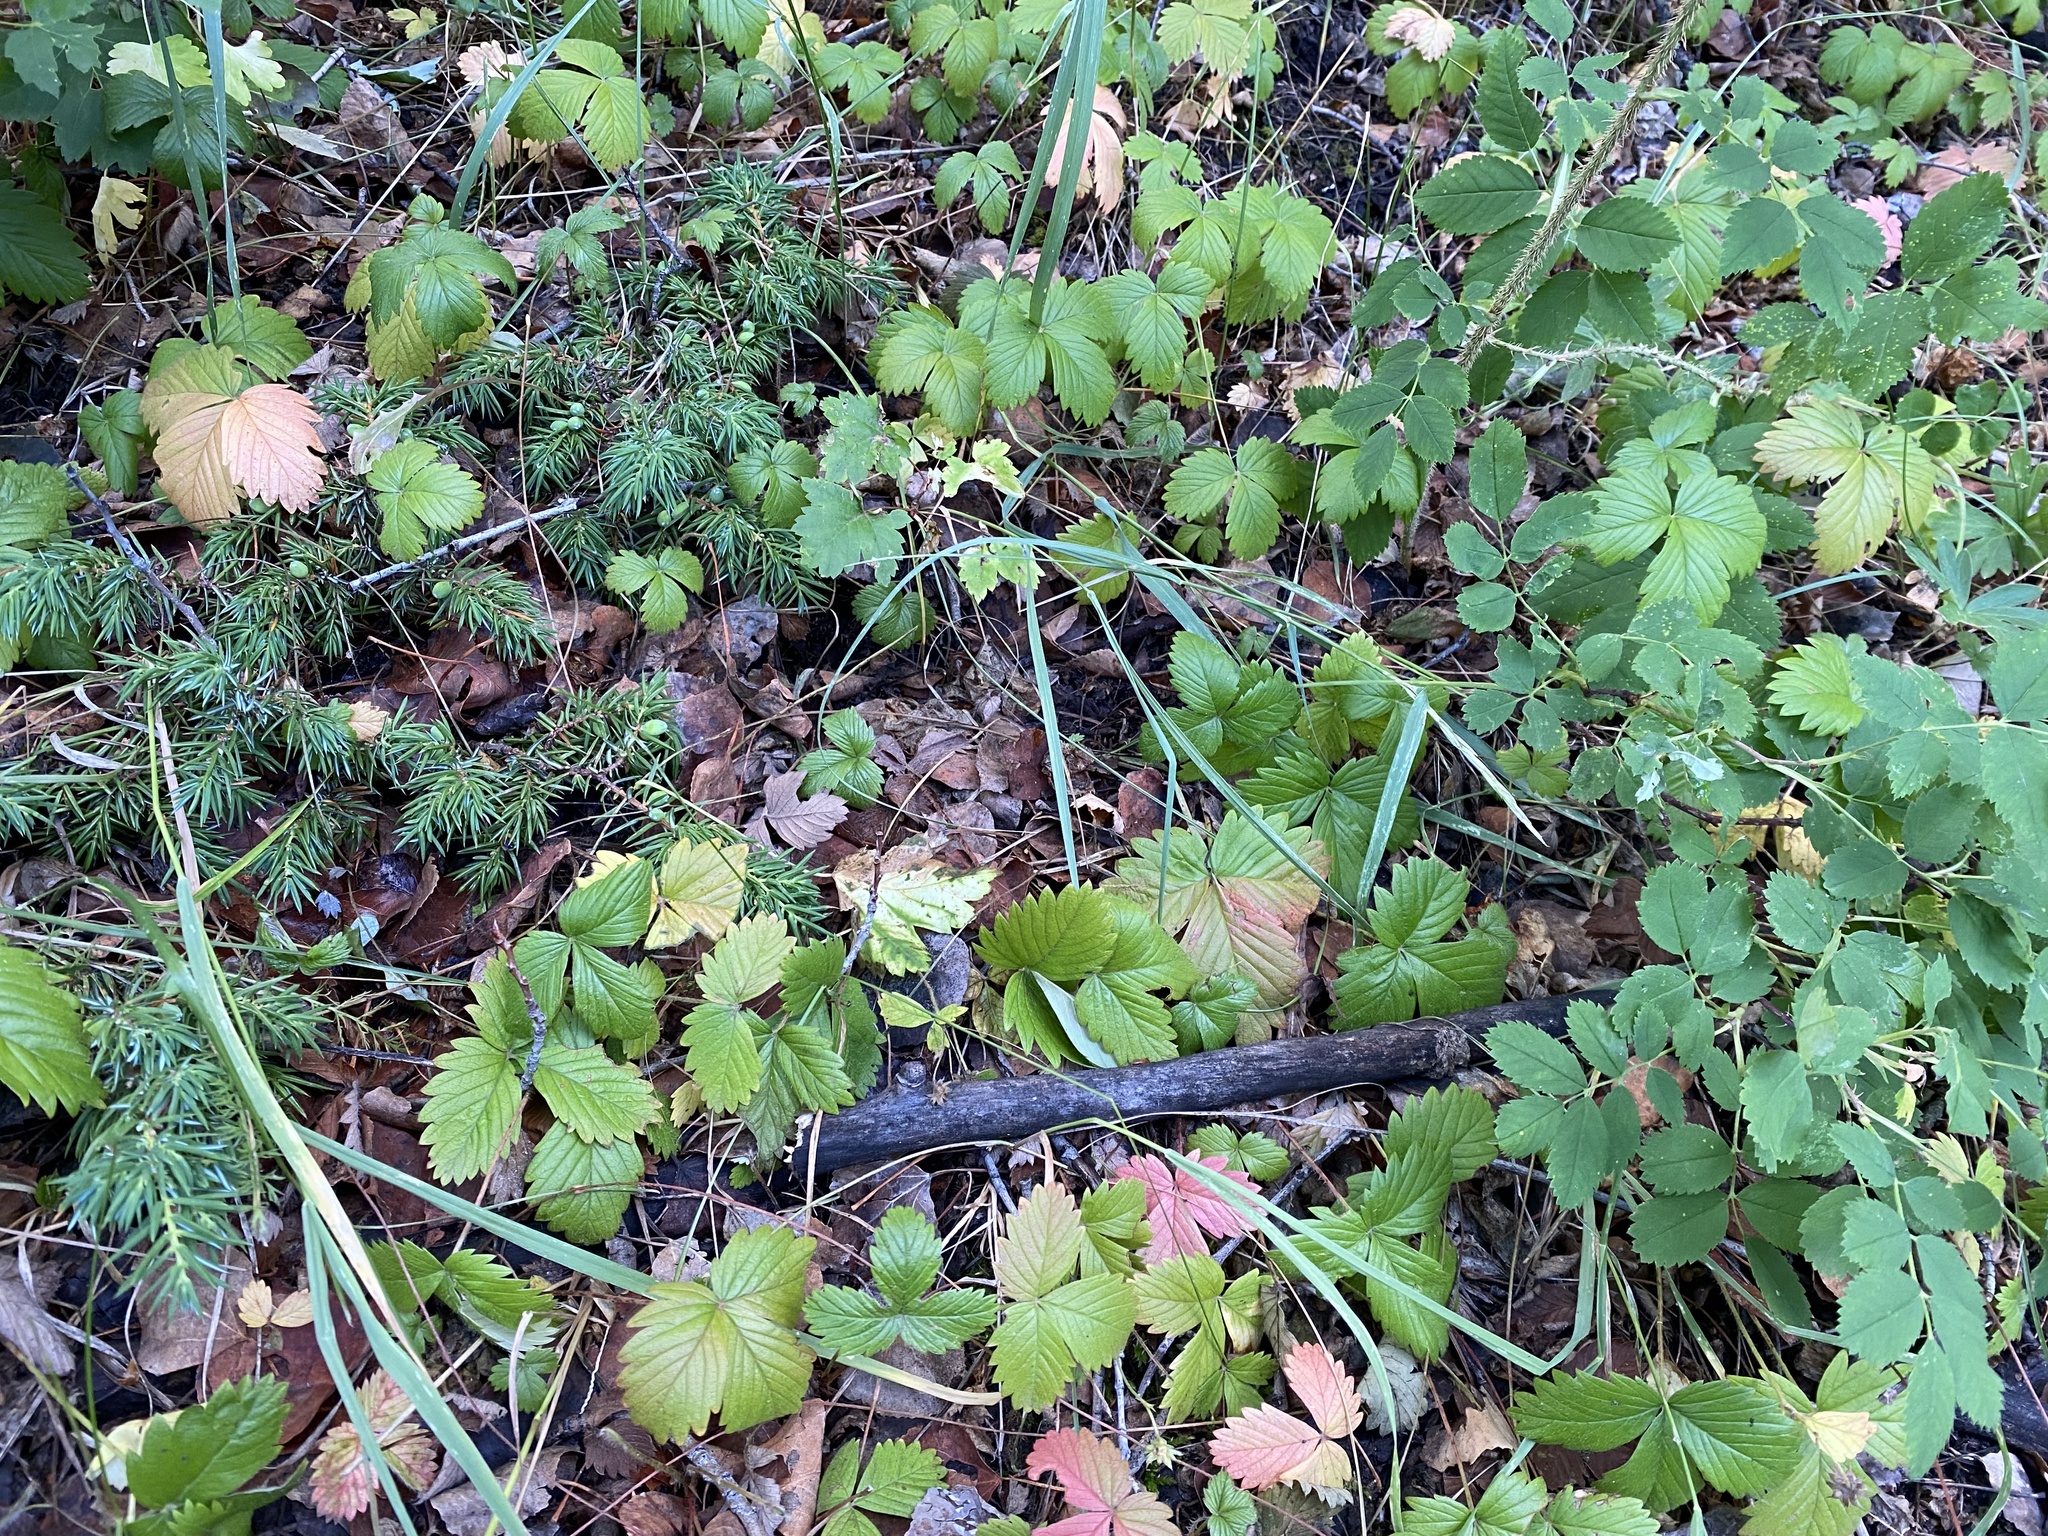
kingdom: Plantae
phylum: Tracheophyta
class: Magnoliopsida
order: Rosales
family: Rosaceae
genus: Fragaria
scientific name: Fragaria vesca
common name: Wild strawberry
